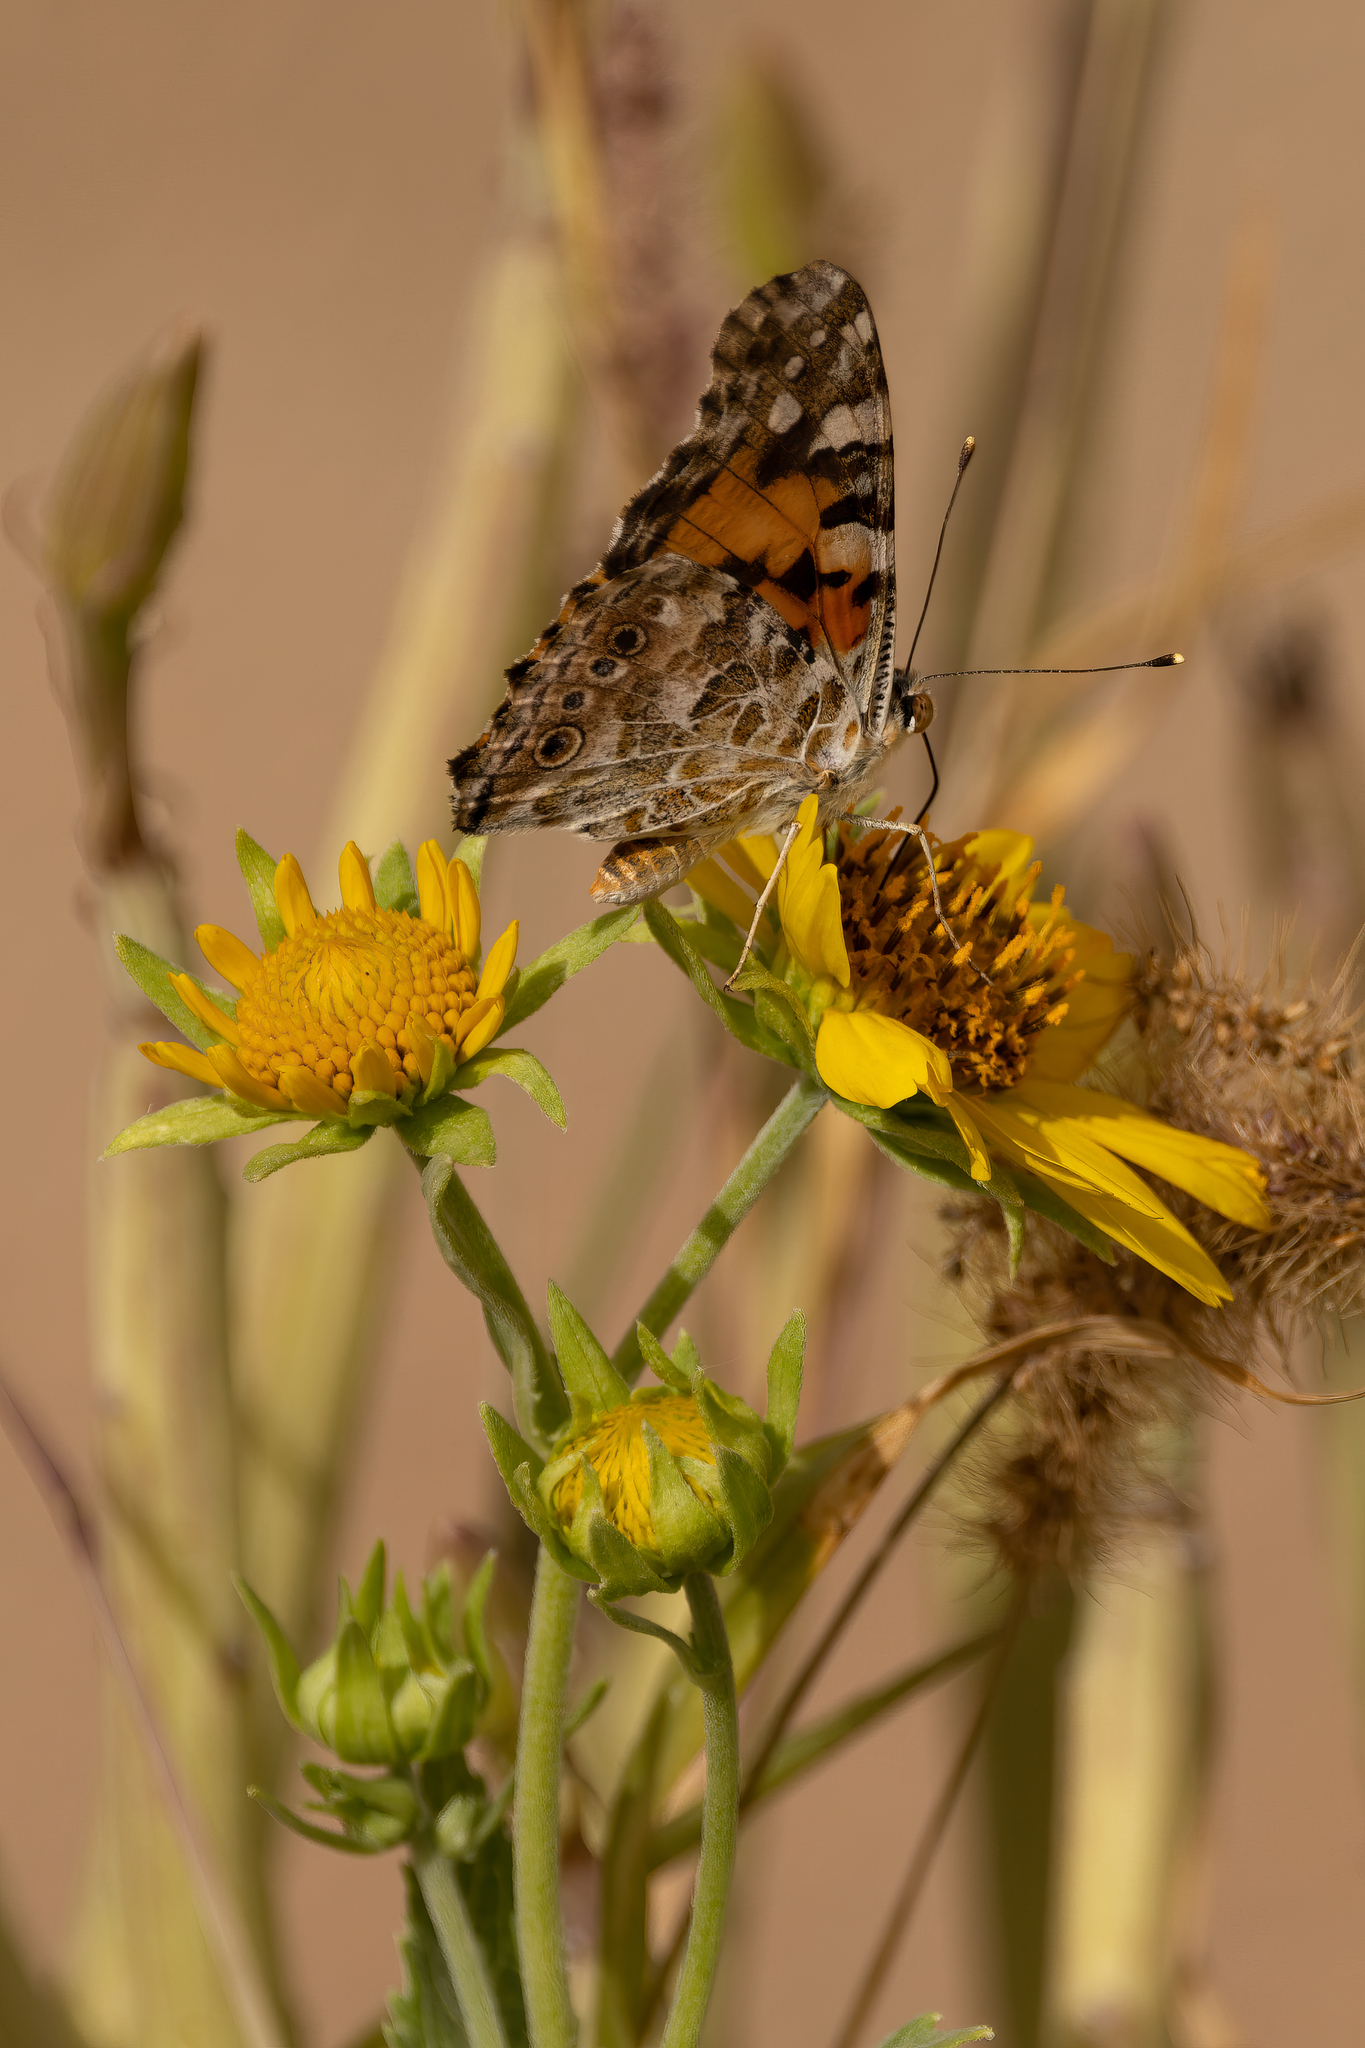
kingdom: Animalia
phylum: Arthropoda
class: Insecta
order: Lepidoptera
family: Nymphalidae
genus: Vanessa
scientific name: Vanessa cardui
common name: Painted lady
